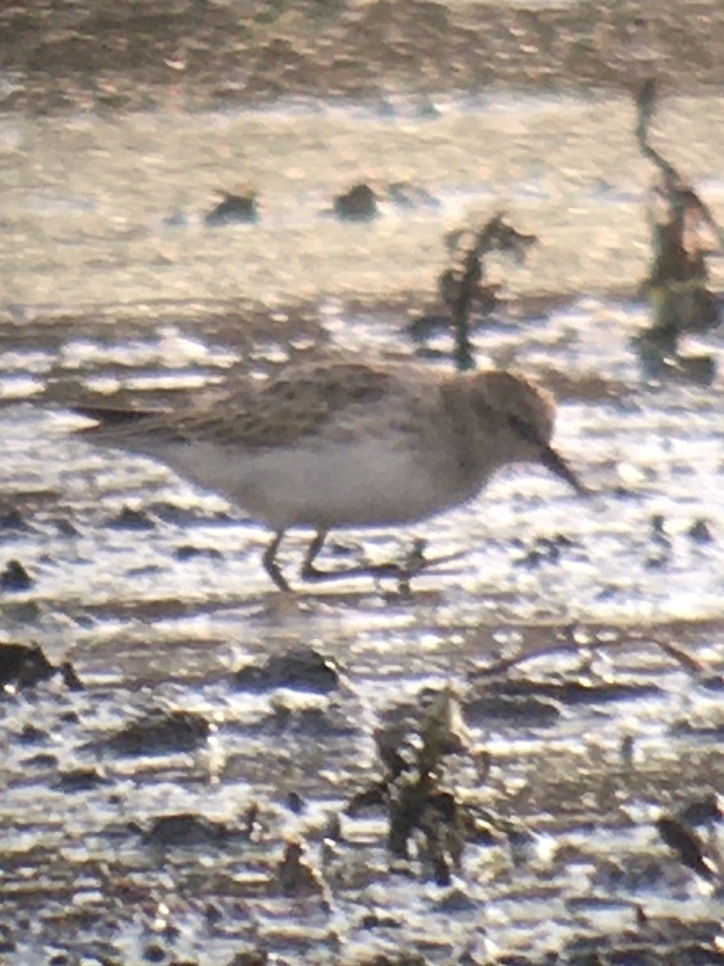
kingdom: Animalia
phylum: Chordata
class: Aves
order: Charadriiformes
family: Scolopacidae
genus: Calidris
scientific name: Calidris minutilla
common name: Least sandpiper
